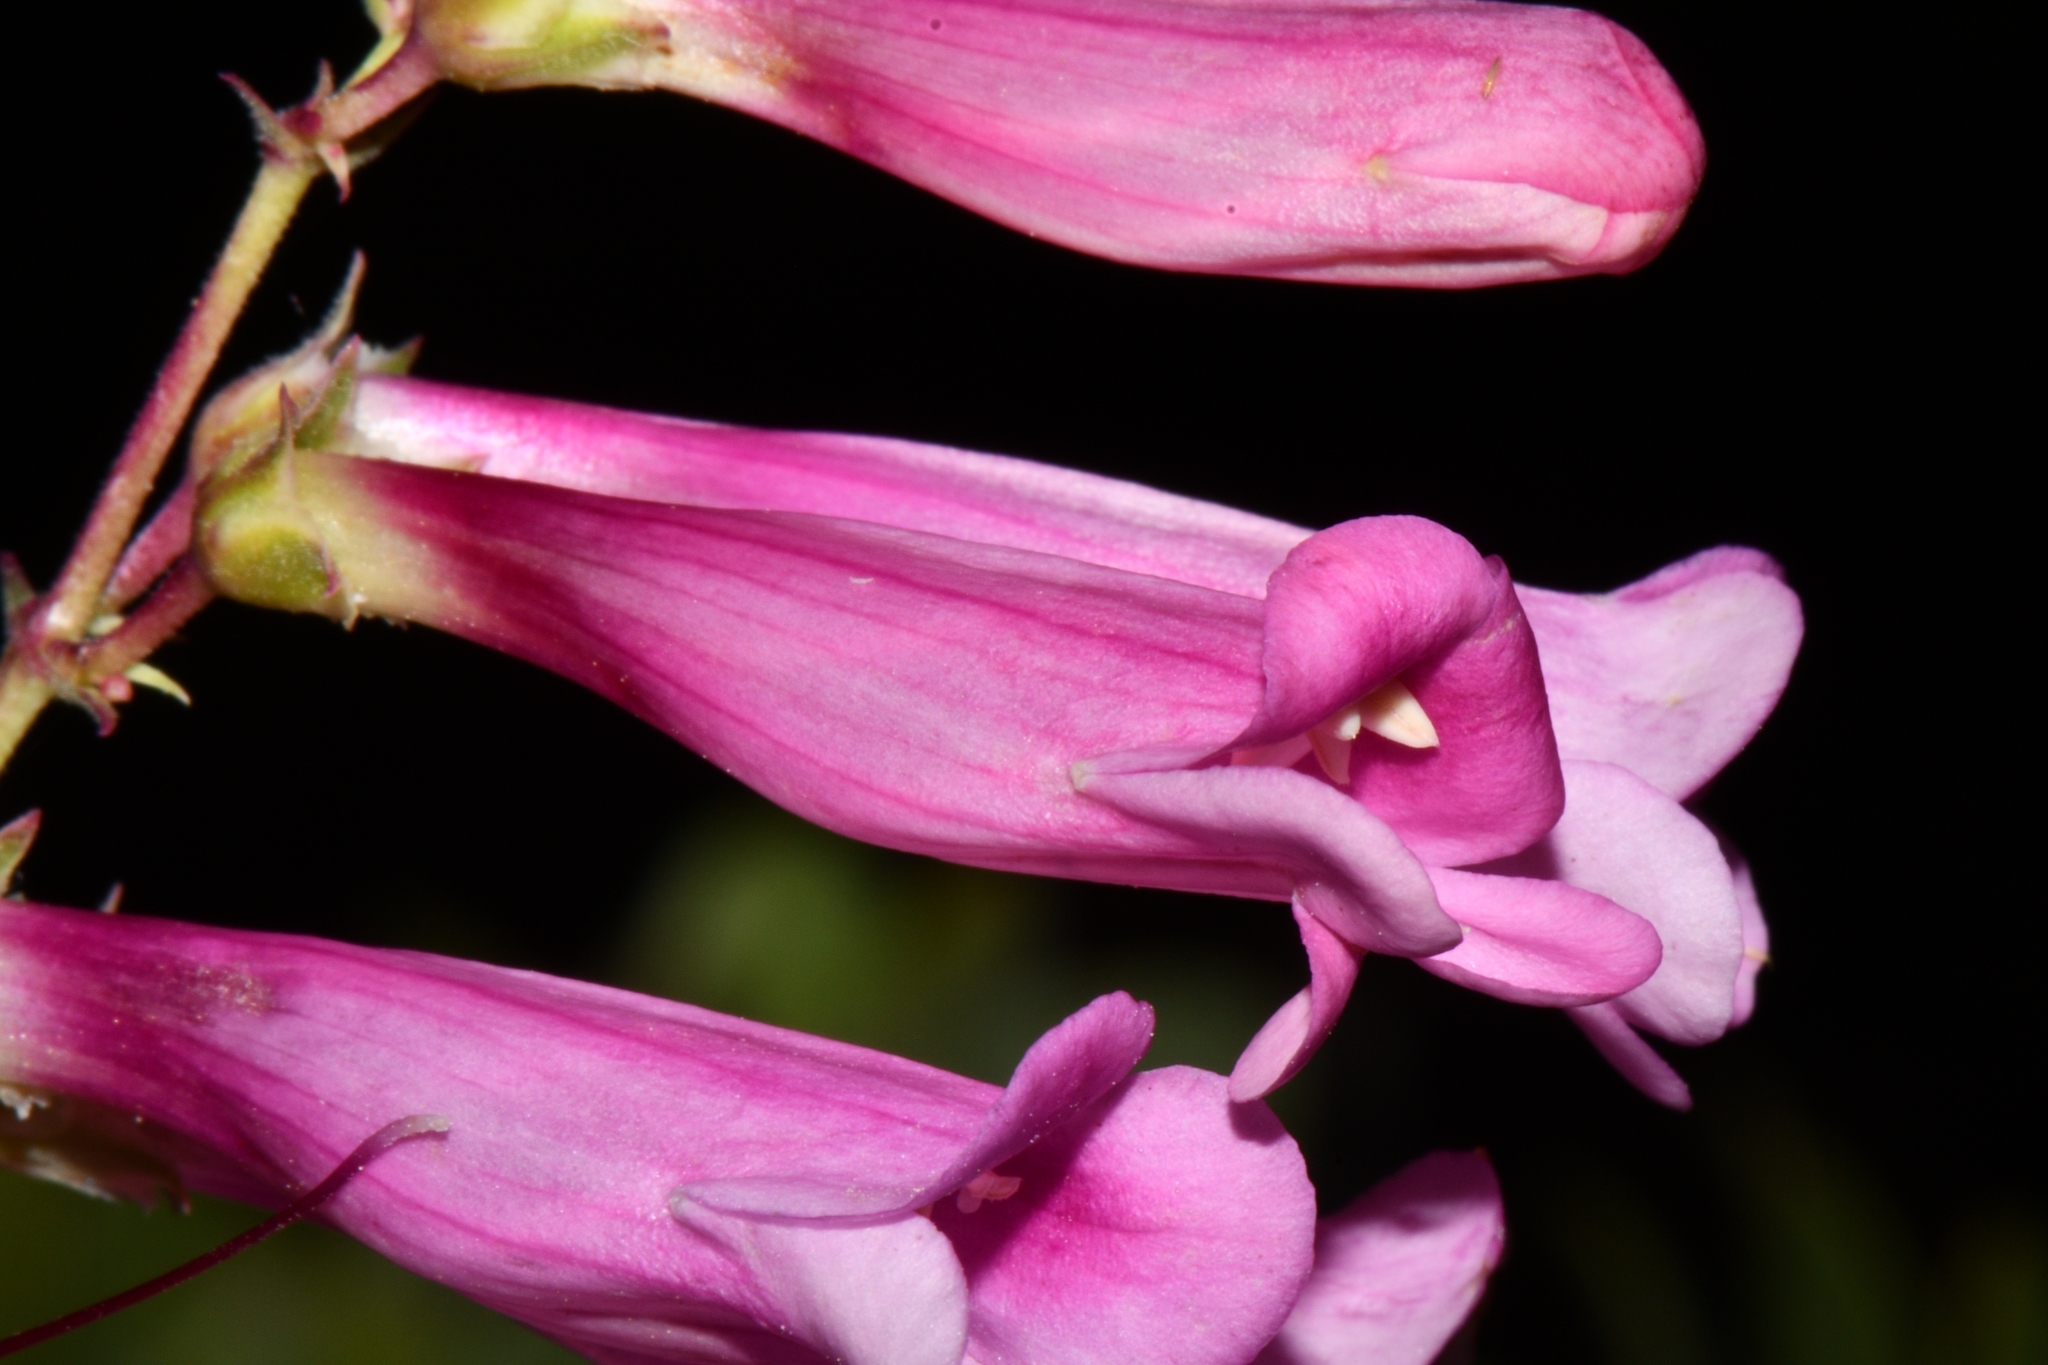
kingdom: Plantae
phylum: Tracheophyta
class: Magnoliopsida
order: Lamiales
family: Plantaginaceae
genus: Penstemon
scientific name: Penstemon jonesii
